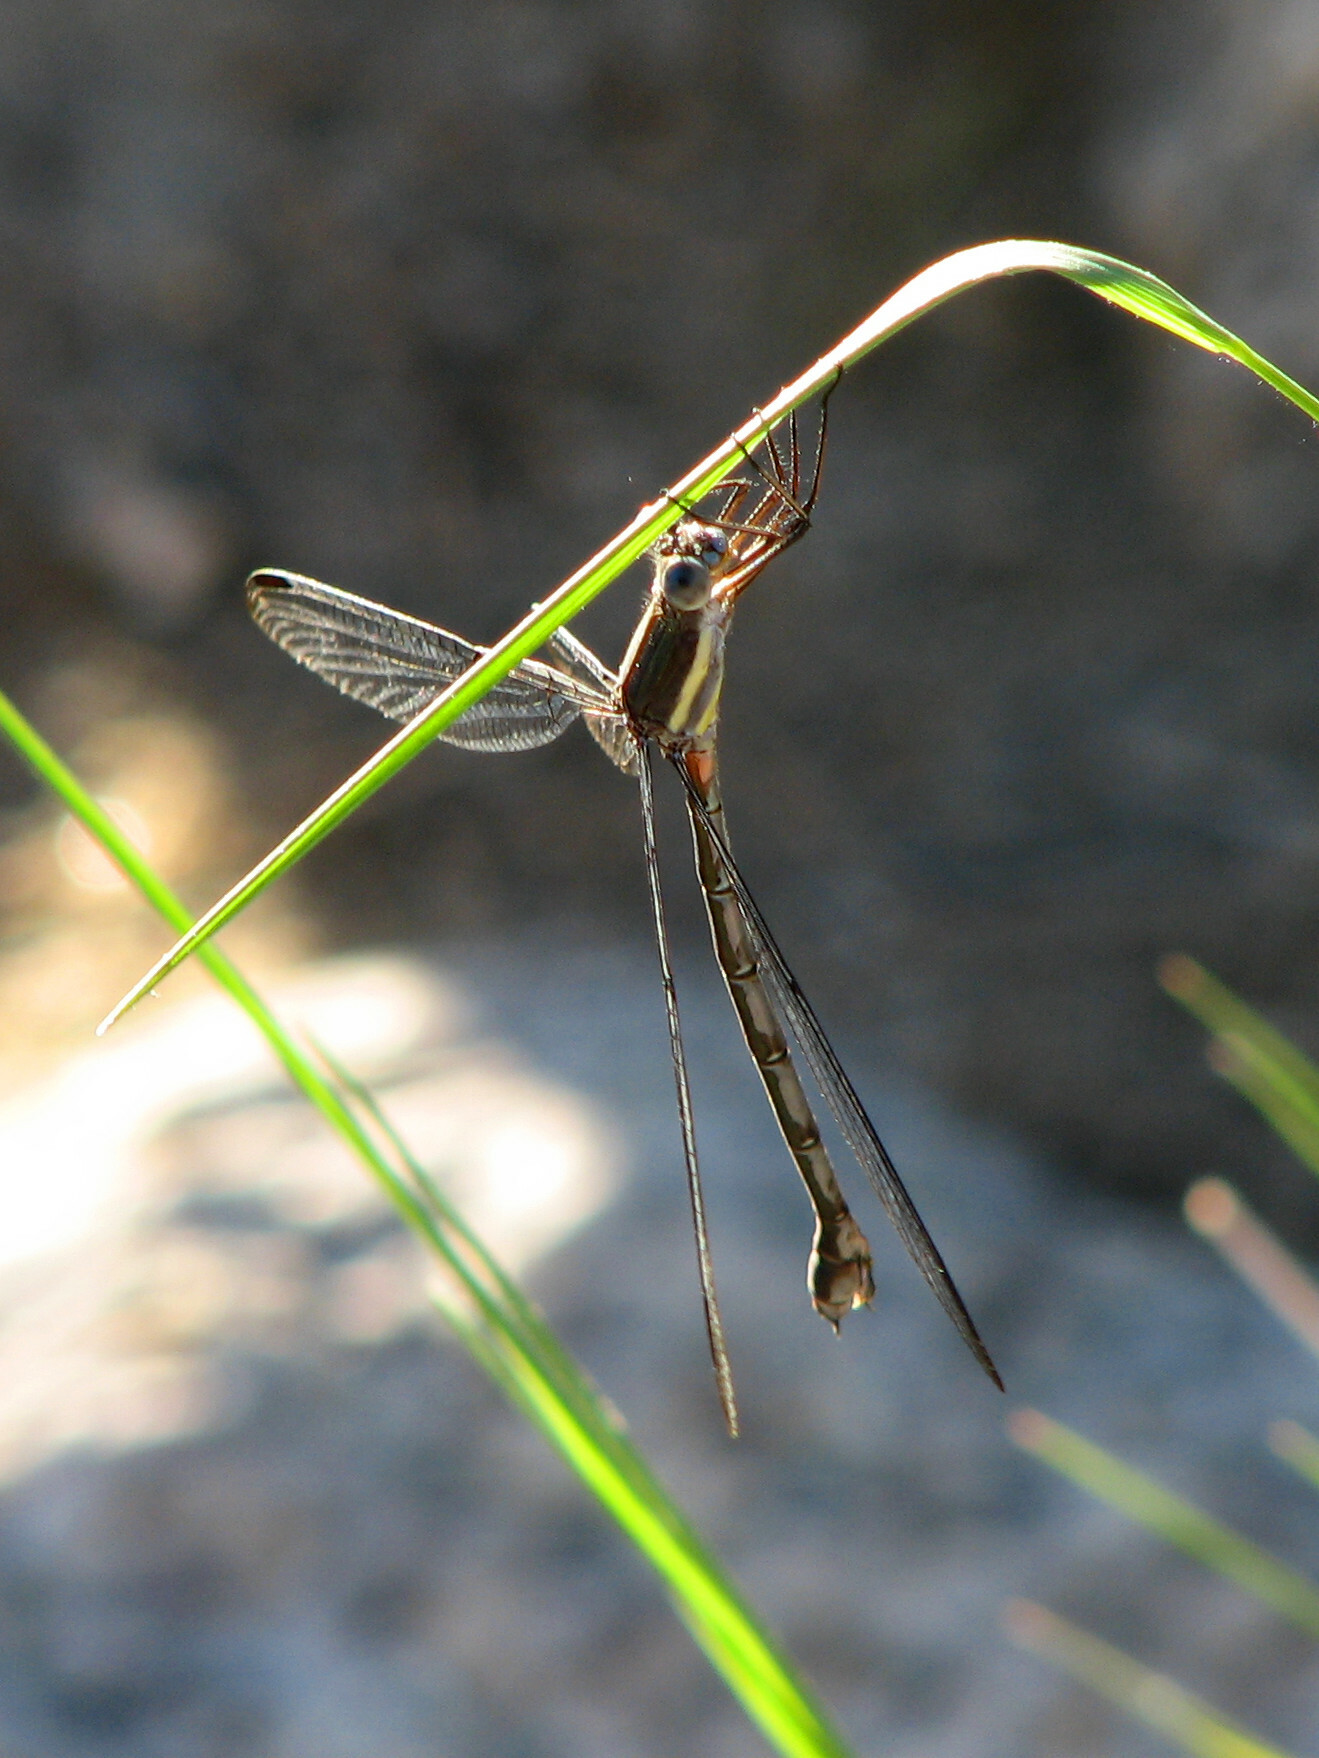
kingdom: Animalia
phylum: Arthropoda
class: Insecta
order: Odonata
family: Lestidae
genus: Archilestes
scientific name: Archilestes grandis
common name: Great spreadwing
